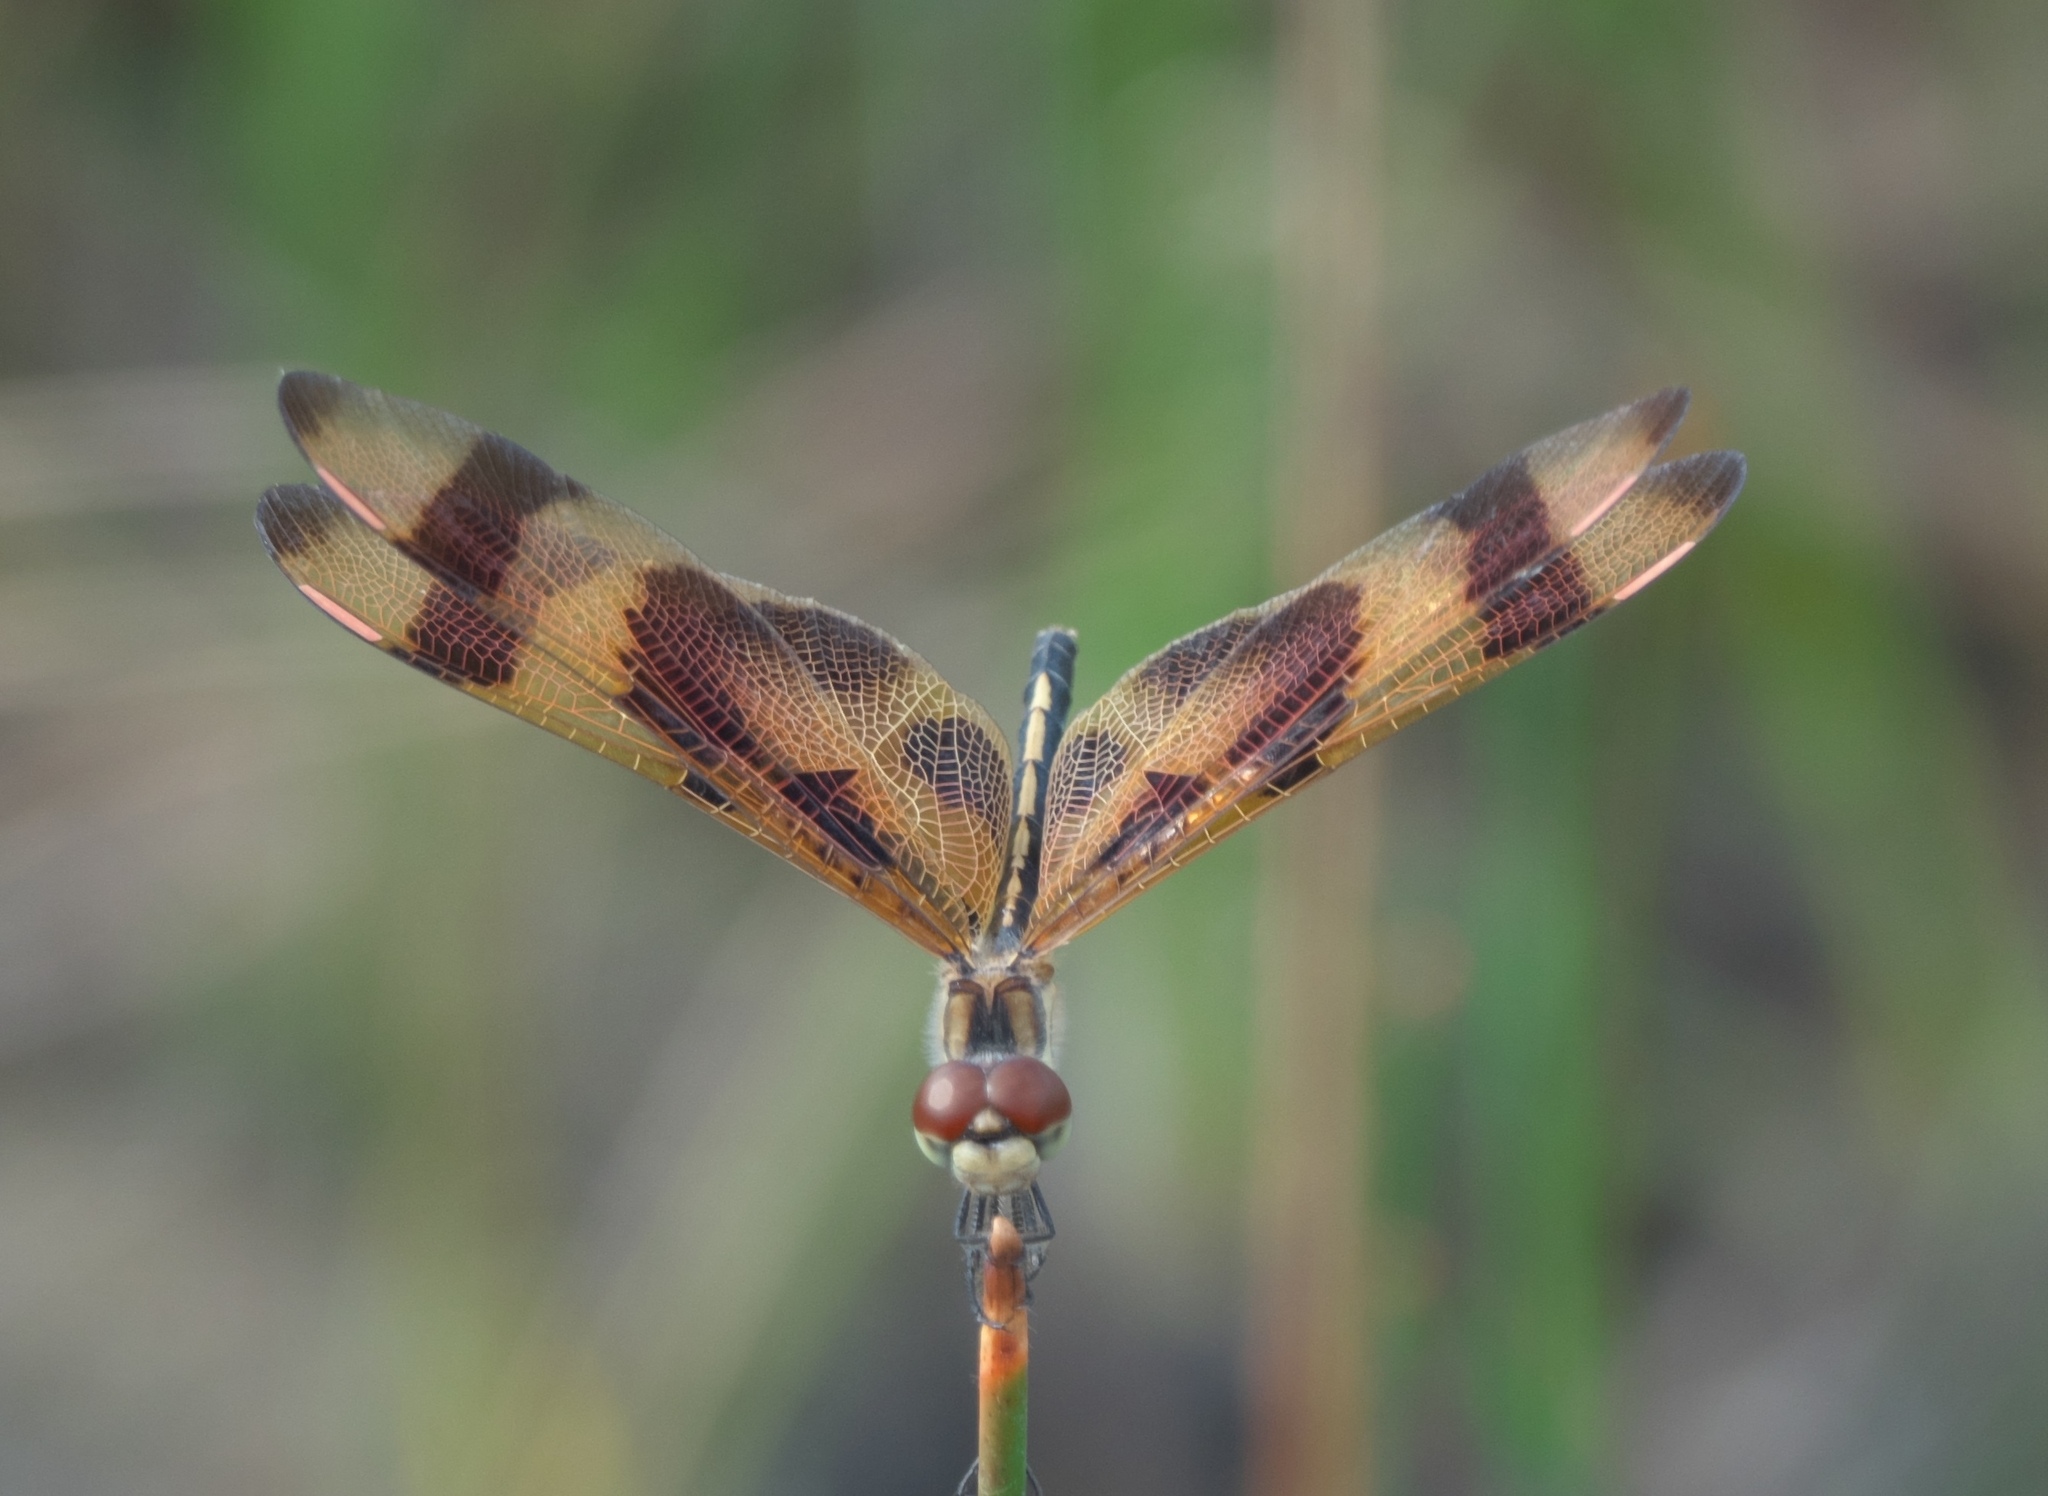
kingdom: Animalia
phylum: Arthropoda
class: Insecta
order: Odonata
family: Libellulidae
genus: Celithemis
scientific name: Celithemis eponina
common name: Halloween pennant
